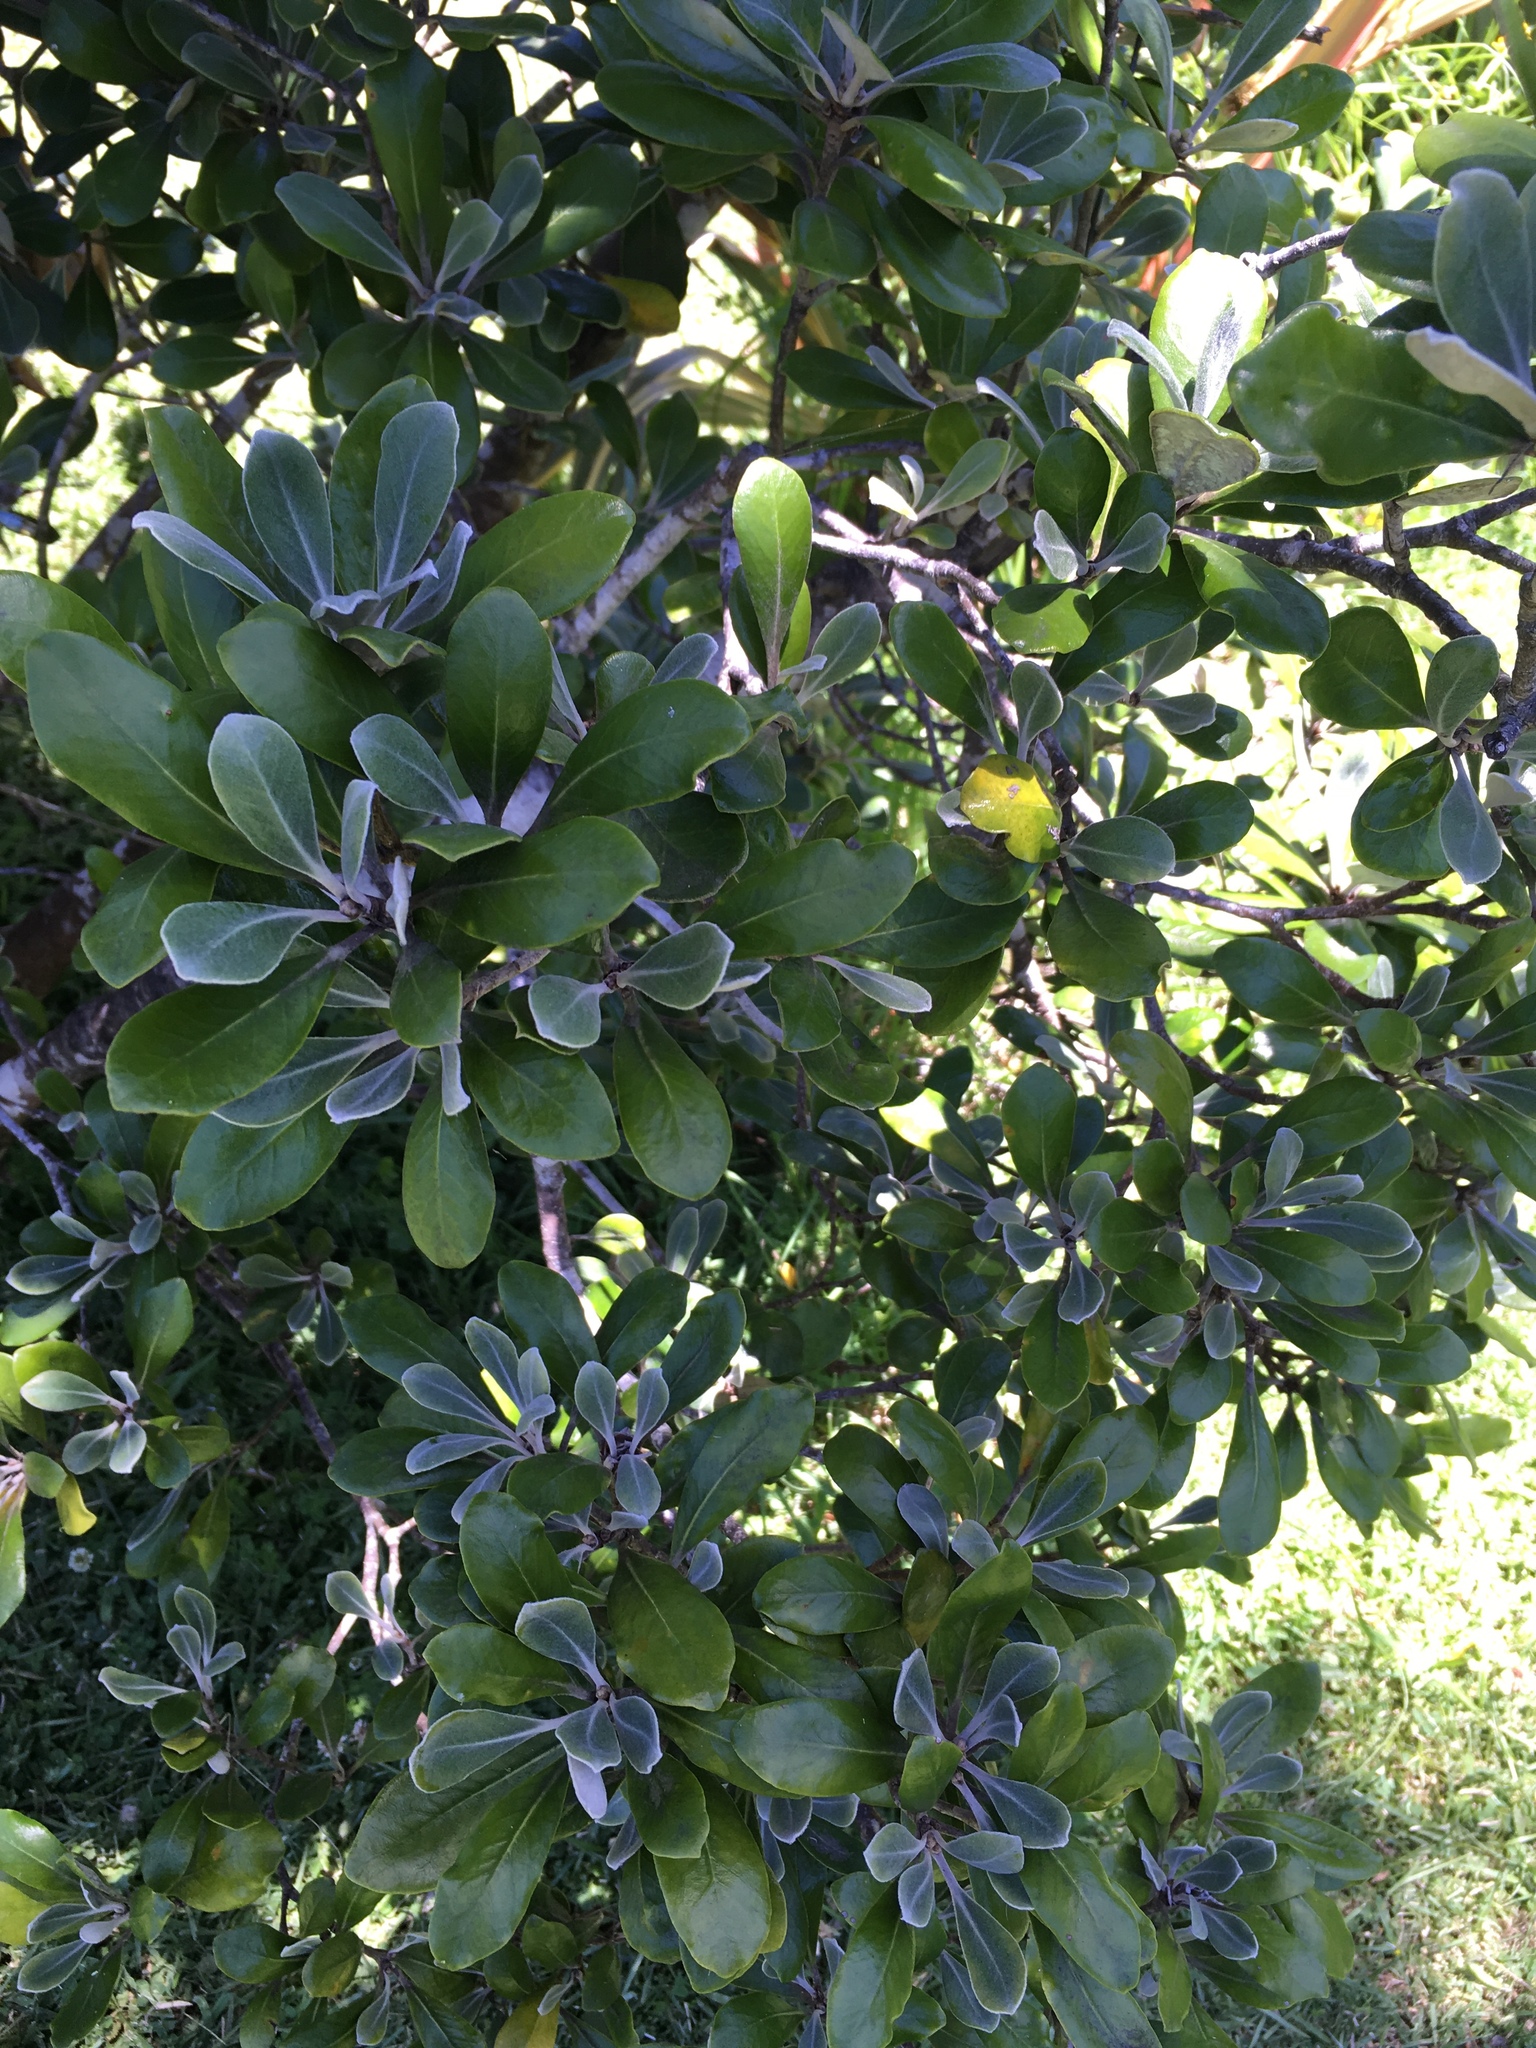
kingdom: Plantae
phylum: Tracheophyta
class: Magnoliopsida
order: Apiales
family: Pittosporaceae
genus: Pittosporum
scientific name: Pittosporum crassifolium
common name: Karo
